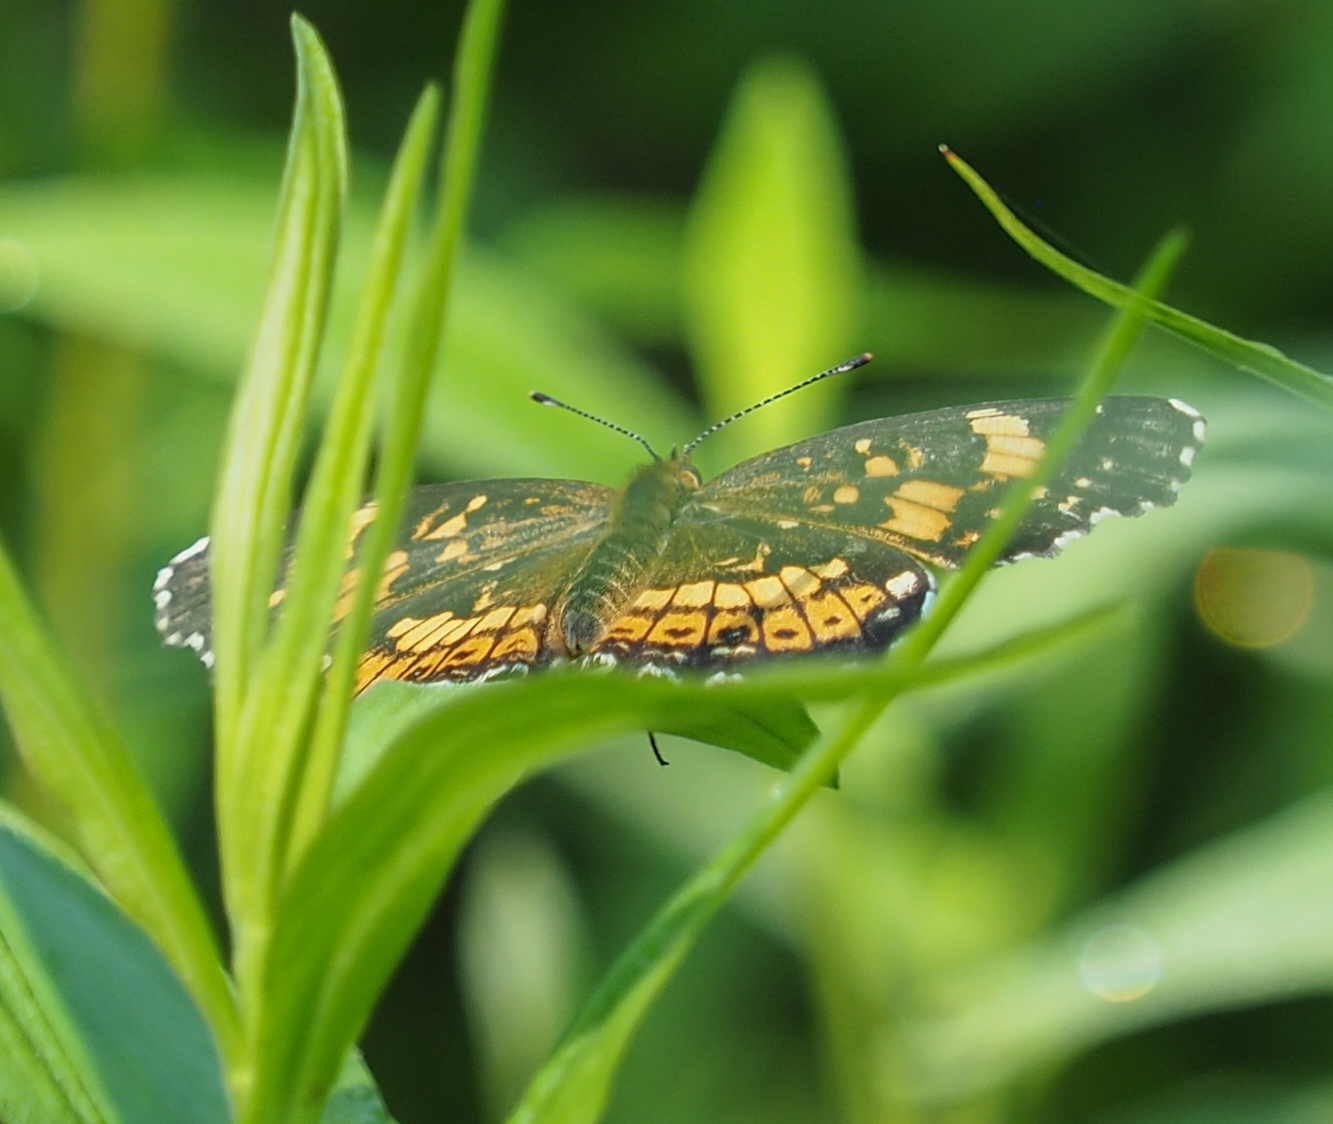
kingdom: Animalia
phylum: Arthropoda
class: Insecta
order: Lepidoptera
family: Nymphalidae
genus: Chlosyne
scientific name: Chlosyne nycteis
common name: Silvery checkerspot
